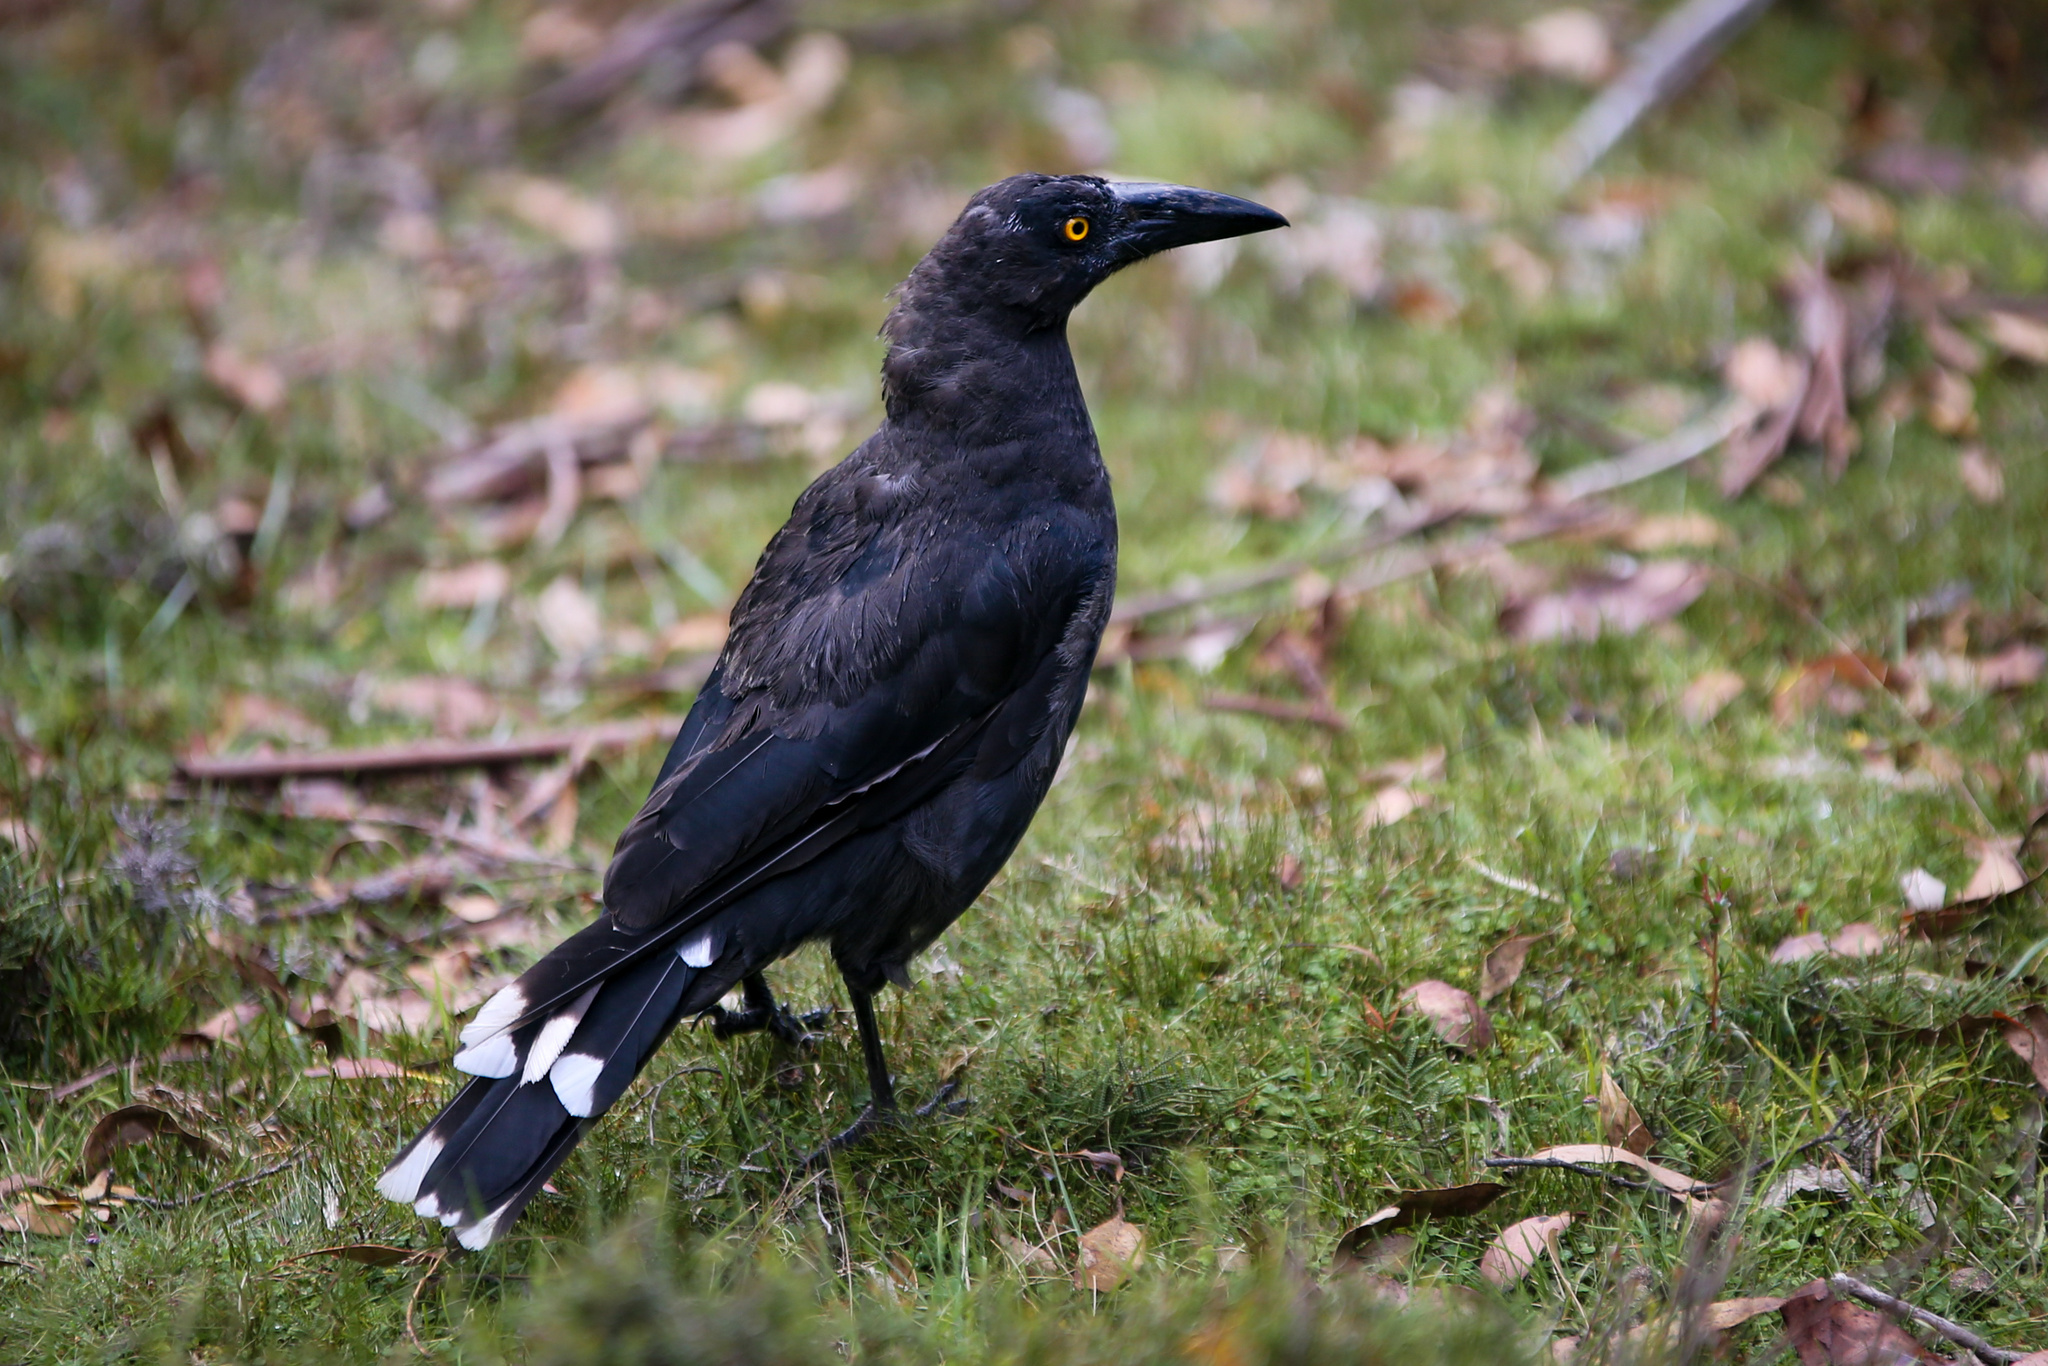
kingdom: Animalia
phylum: Chordata
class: Aves
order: Passeriformes
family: Cracticidae
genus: Strepera
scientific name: Strepera fuliginosa
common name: Black currawong
